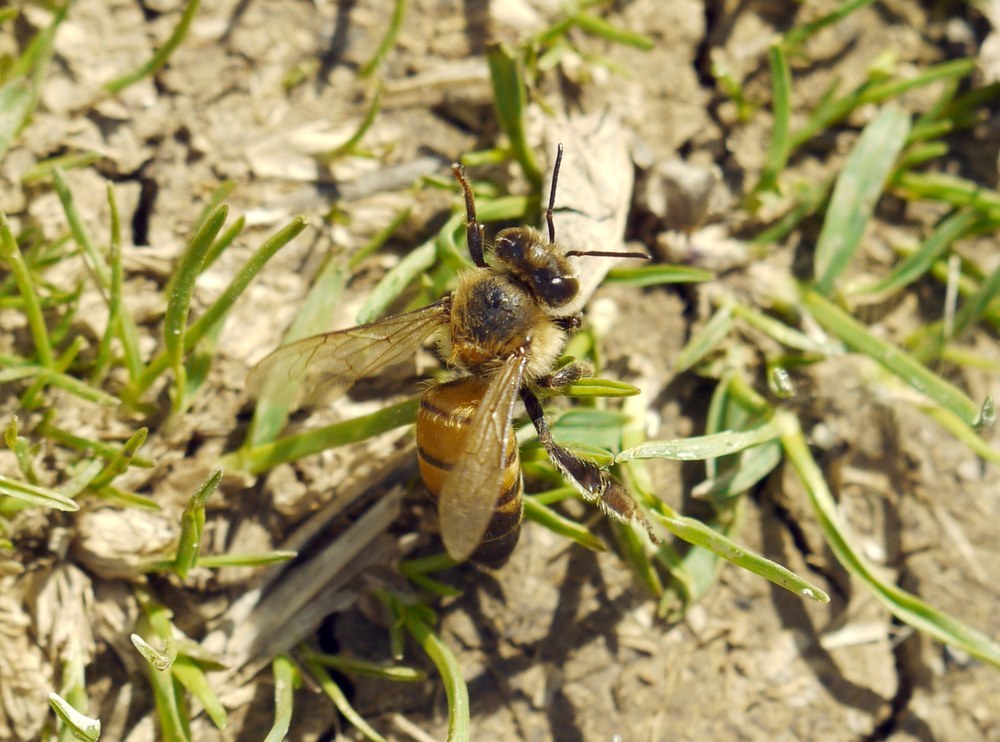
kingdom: Animalia
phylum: Arthropoda
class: Insecta
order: Hymenoptera
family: Apidae
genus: Apis
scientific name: Apis mellifera
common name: Honey bee
